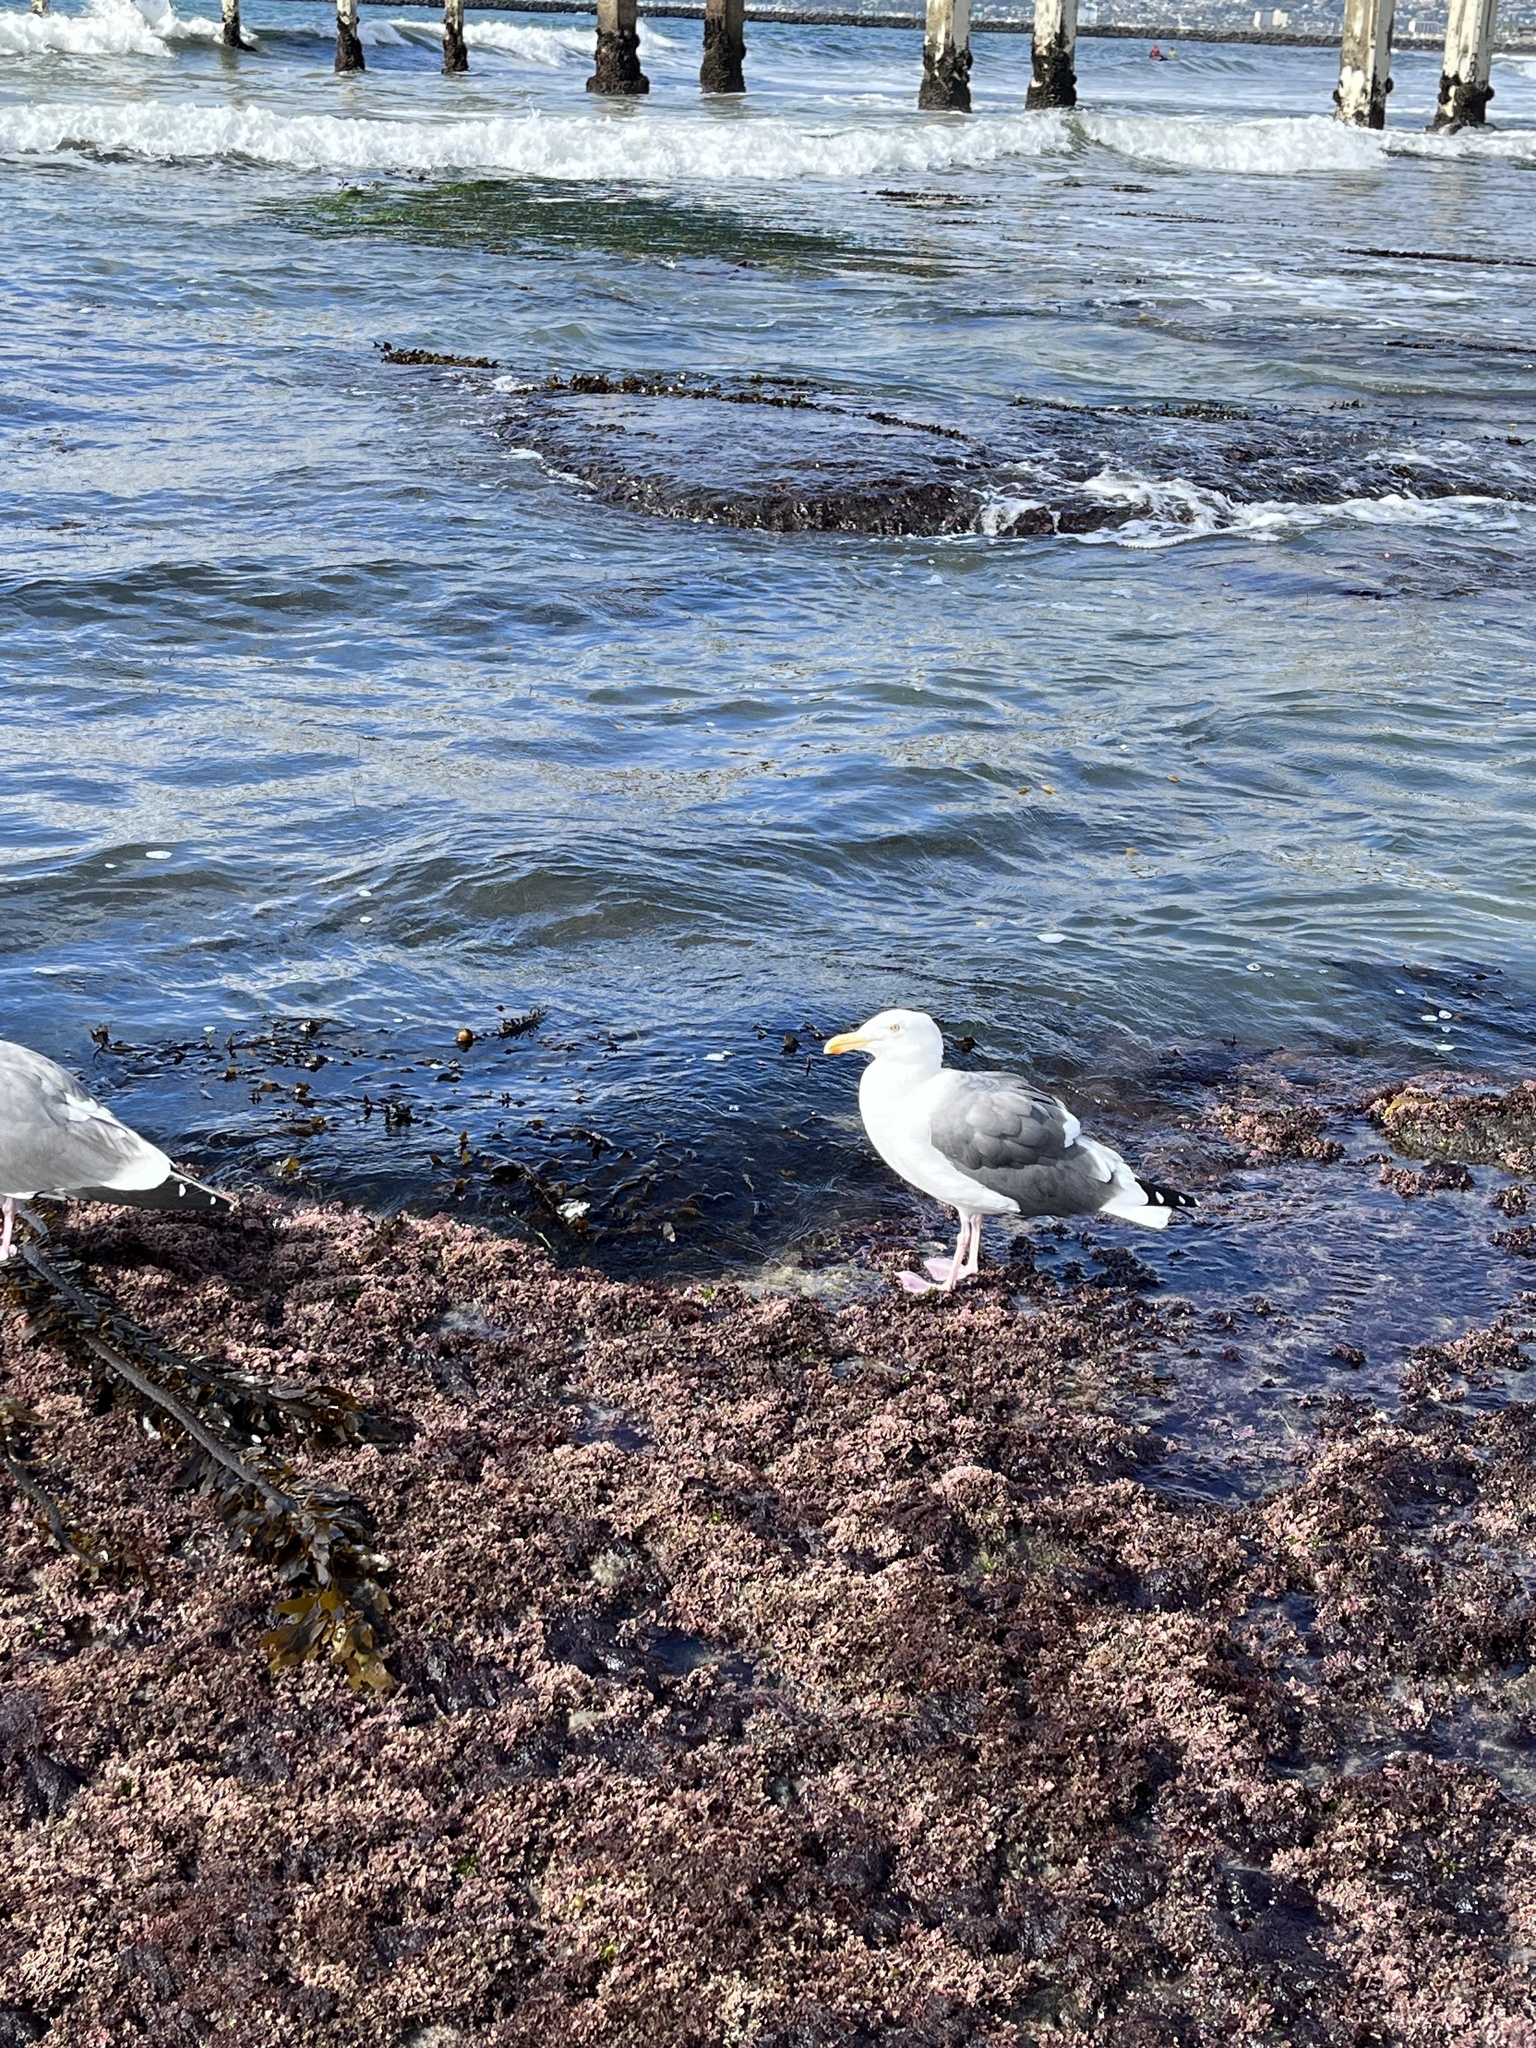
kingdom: Animalia
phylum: Chordata
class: Aves
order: Charadriiformes
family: Laridae
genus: Larus
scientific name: Larus occidentalis
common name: Western gull
